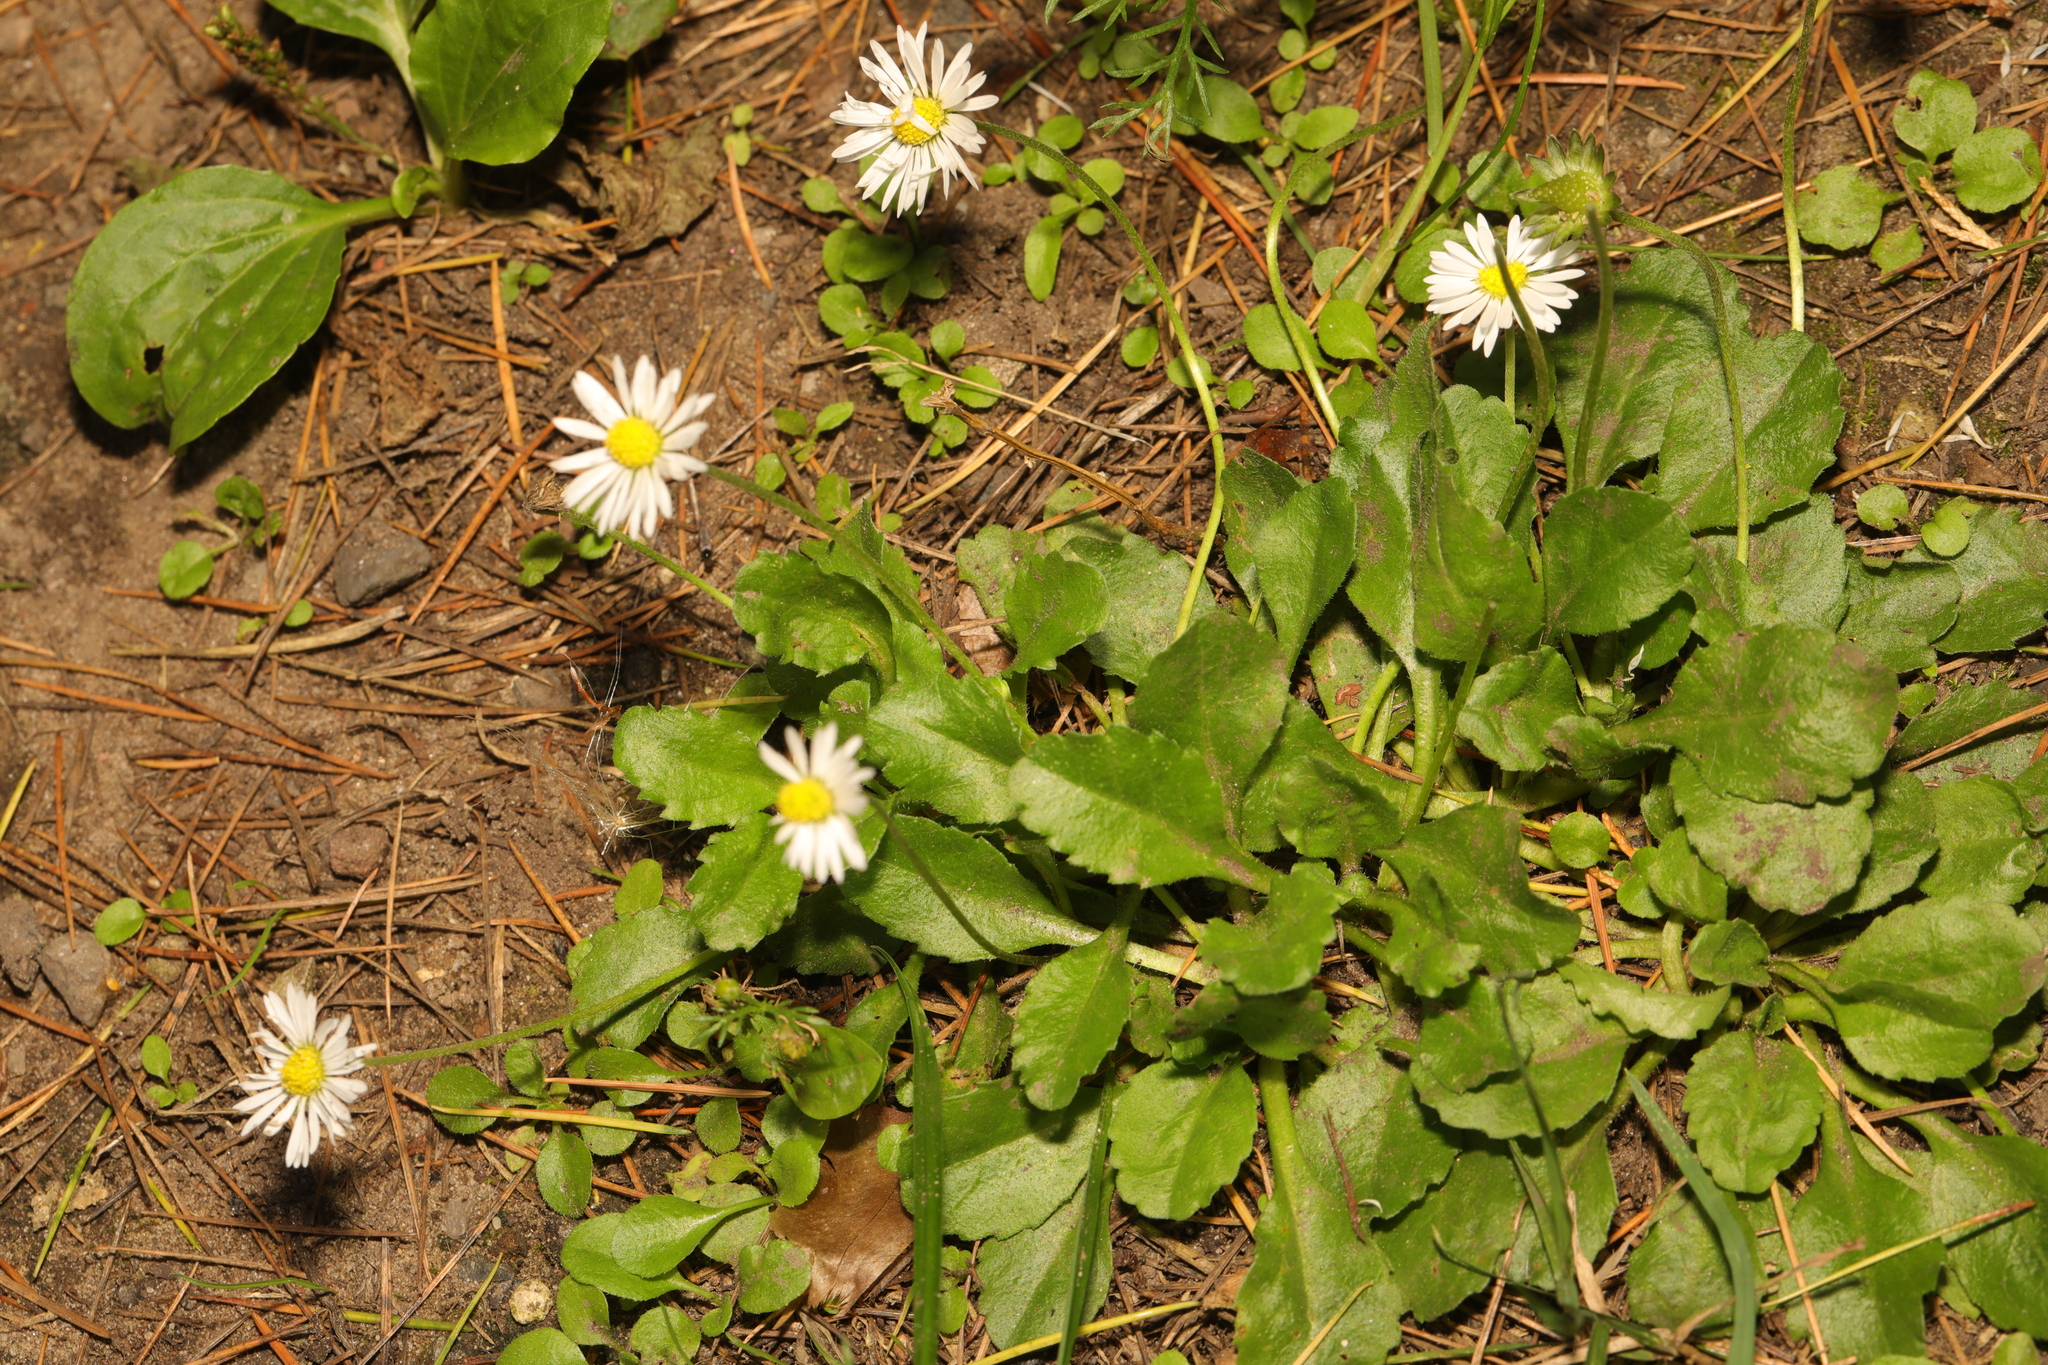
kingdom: Plantae
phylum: Tracheophyta
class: Magnoliopsida
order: Asterales
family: Asteraceae
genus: Bellis
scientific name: Bellis perennis
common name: Lawndaisy
